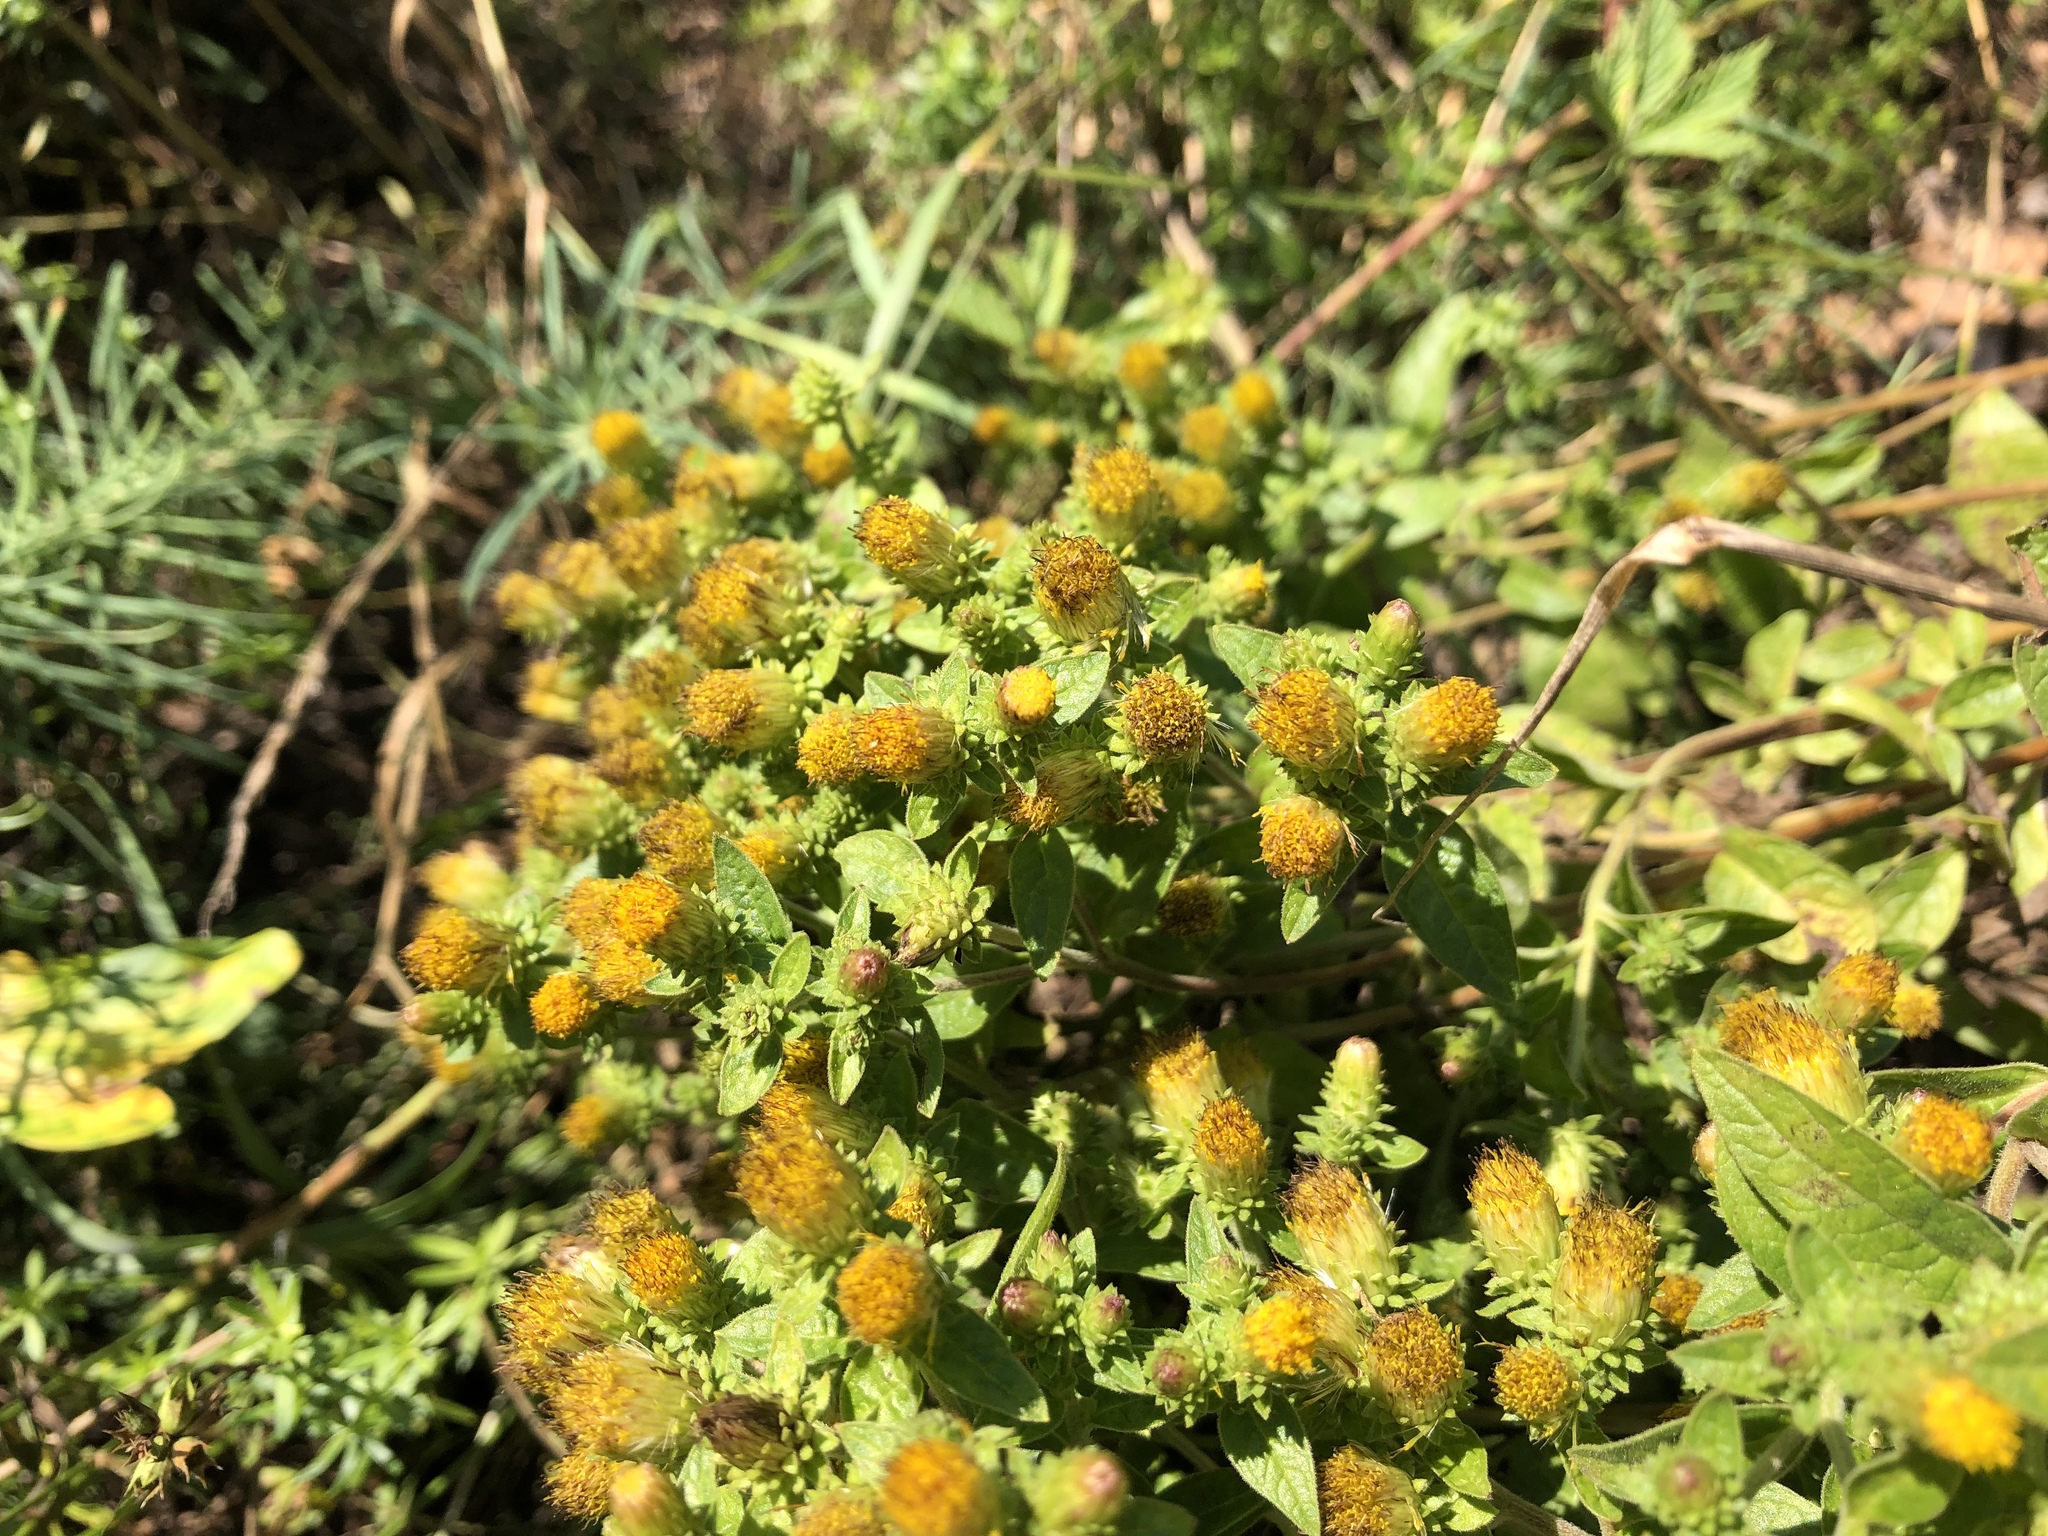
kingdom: Plantae
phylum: Tracheophyta
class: Magnoliopsida
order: Asterales
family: Asteraceae
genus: Pentanema
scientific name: Pentanema squarrosum
